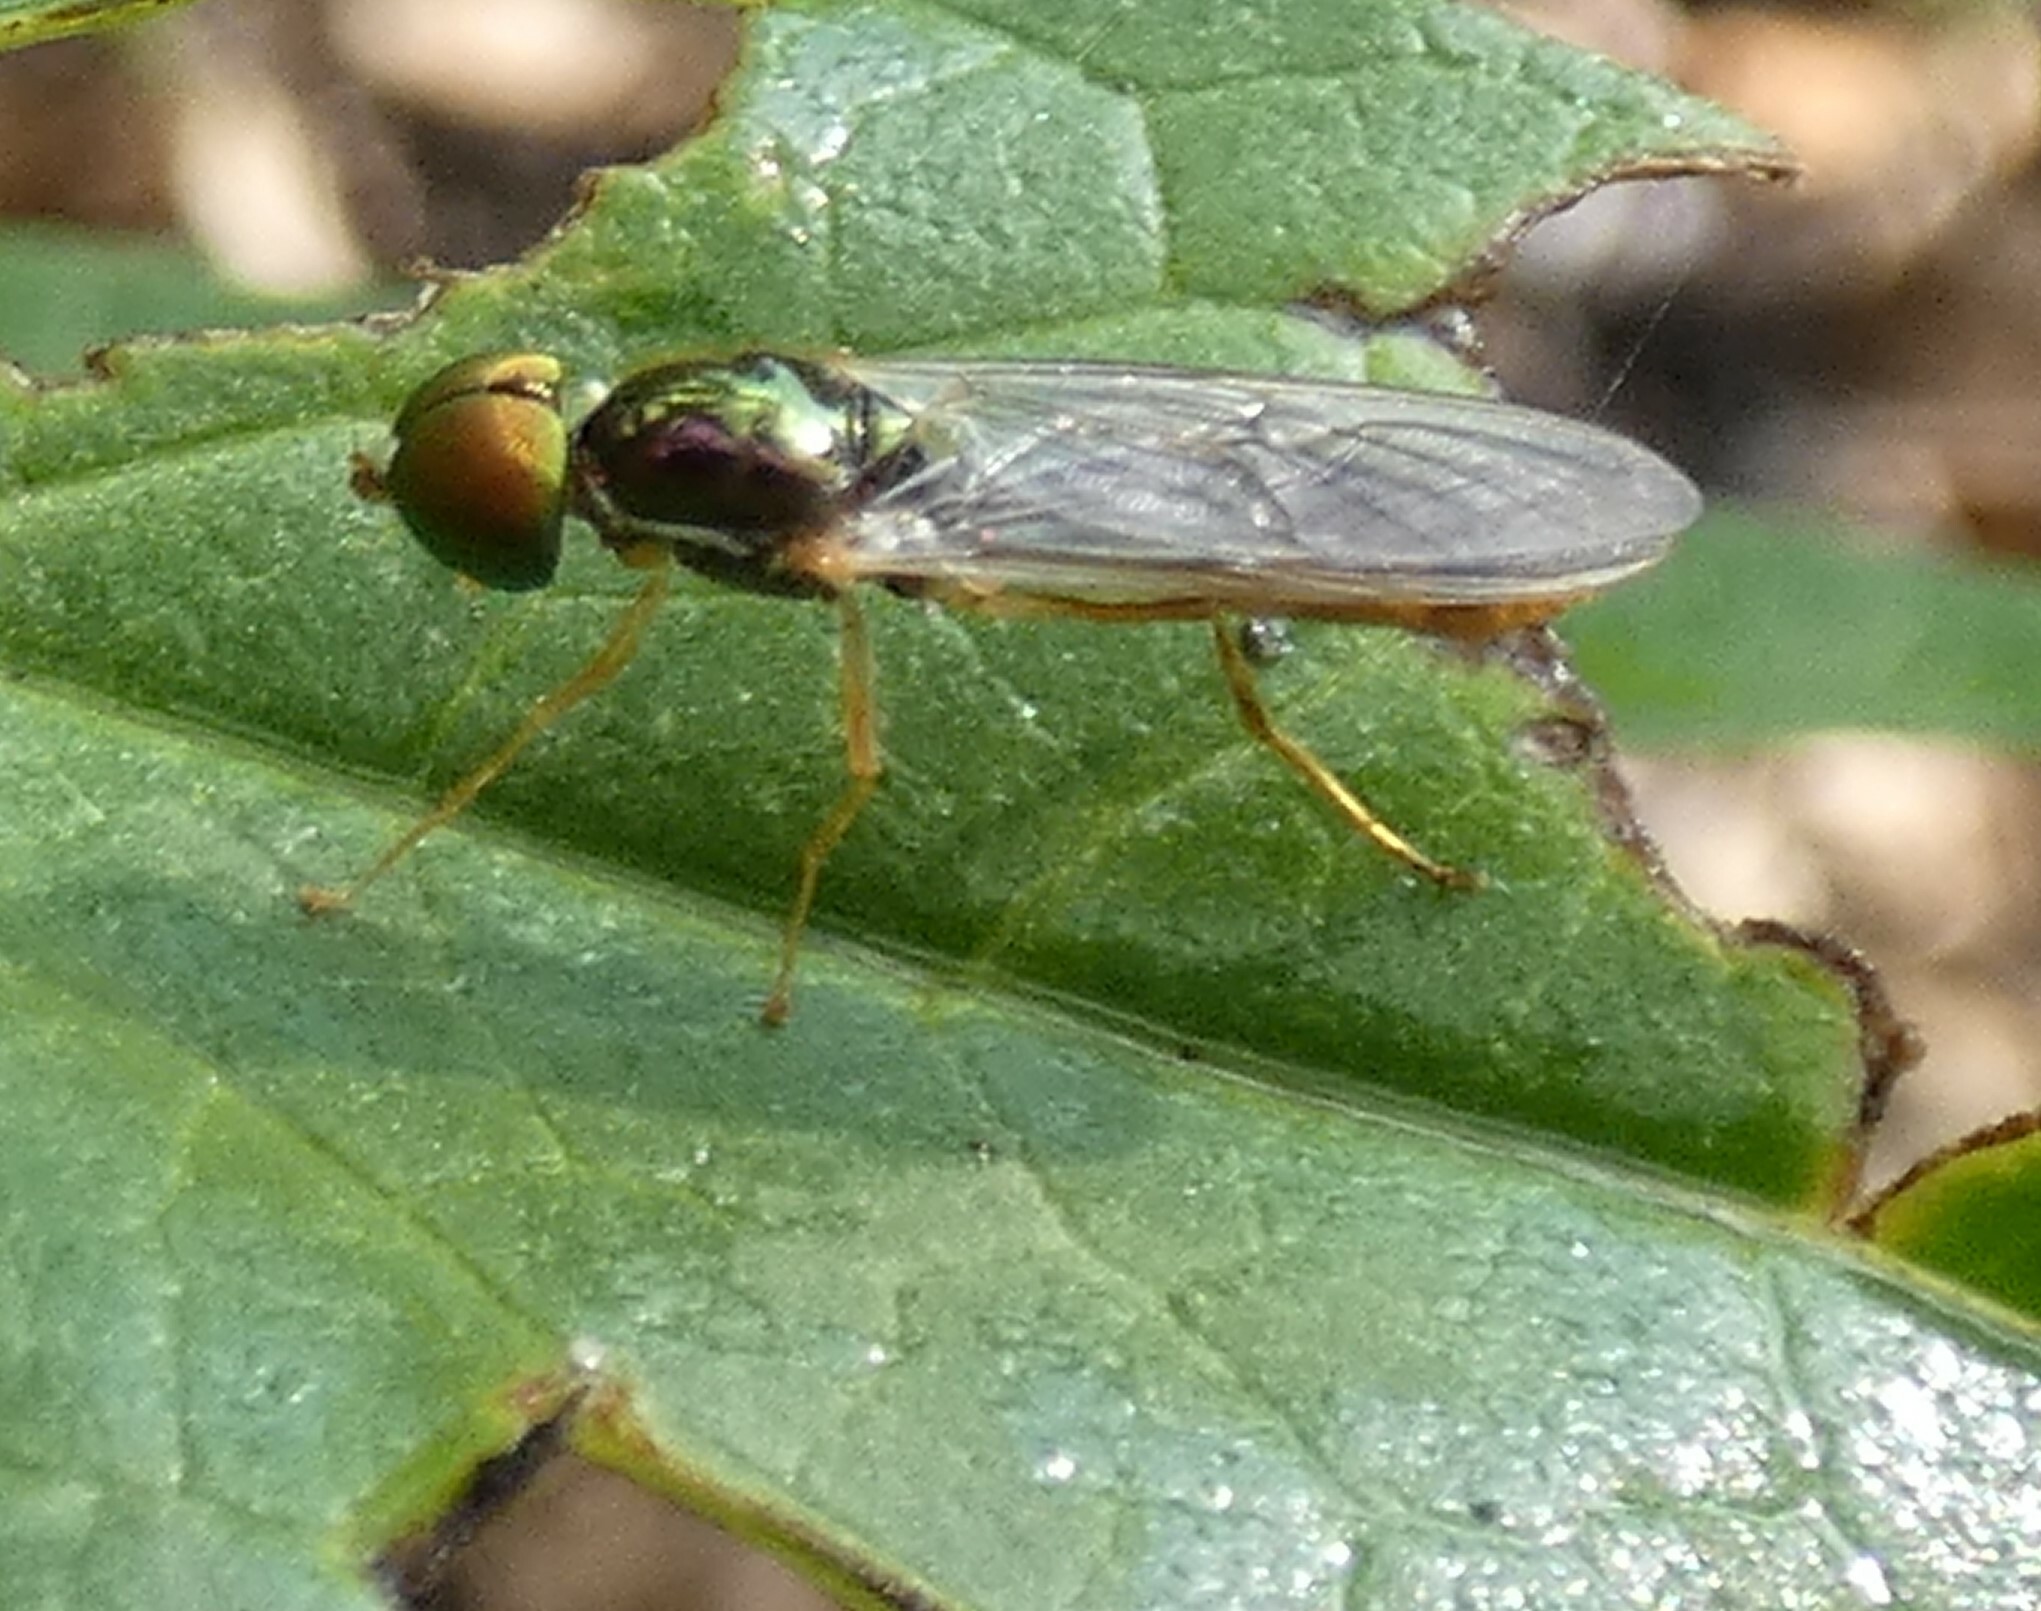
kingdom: Animalia
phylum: Arthropoda
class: Insecta
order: Diptera
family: Stratiomyidae
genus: Sargus
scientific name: Sargus fasciatus
